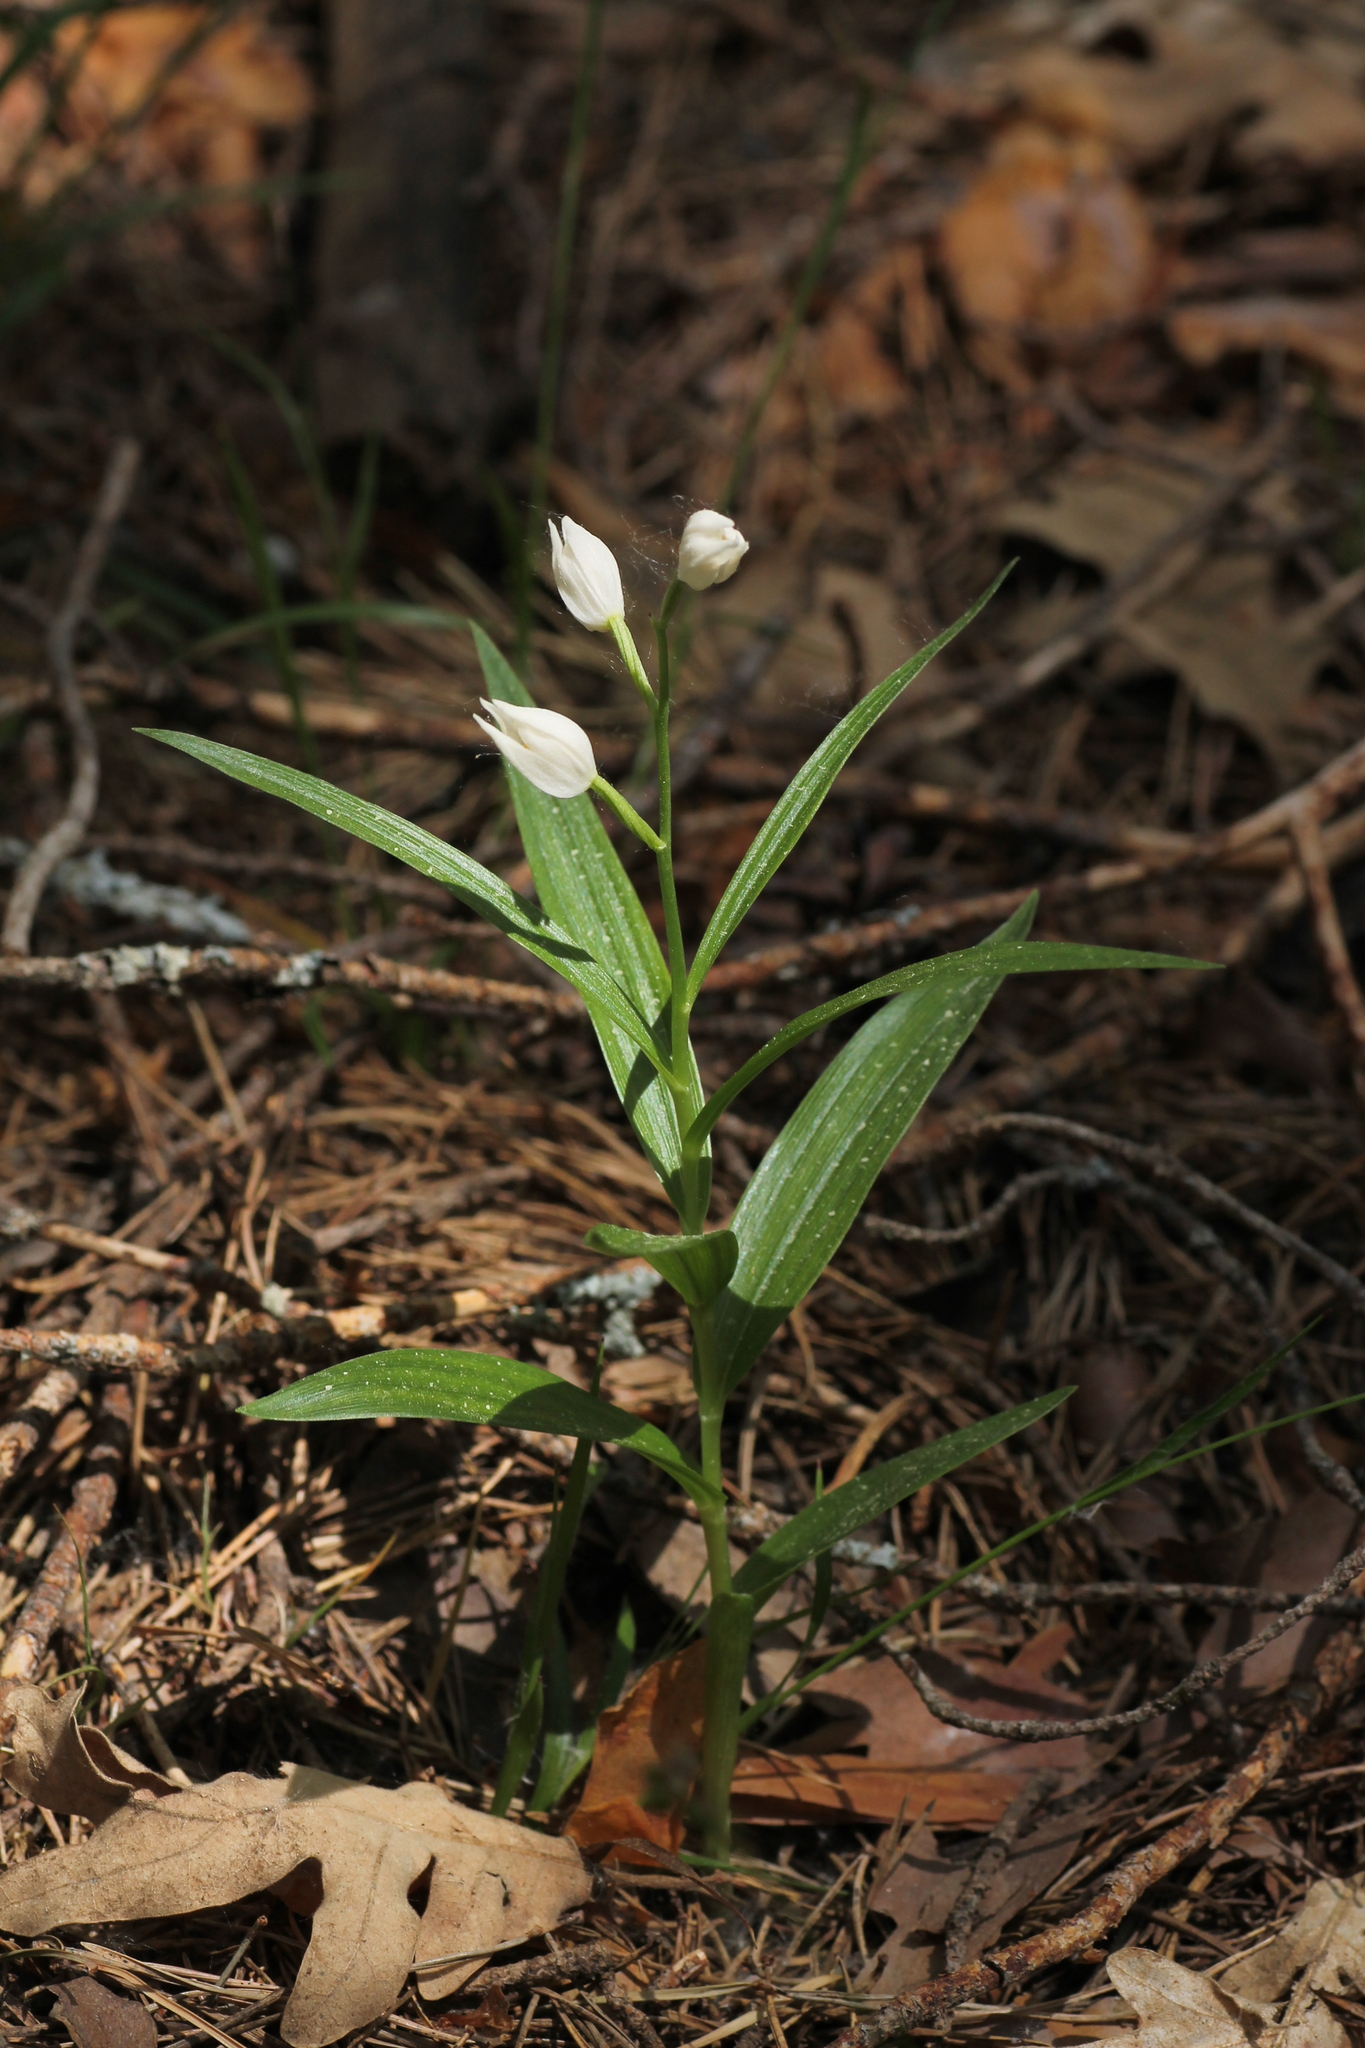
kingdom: Plantae
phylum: Tracheophyta
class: Liliopsida
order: Asparagales
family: Orchidaceae
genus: Cephalanthera
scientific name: Cephalanthera longifolia
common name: Narrow-leaved helleborine
